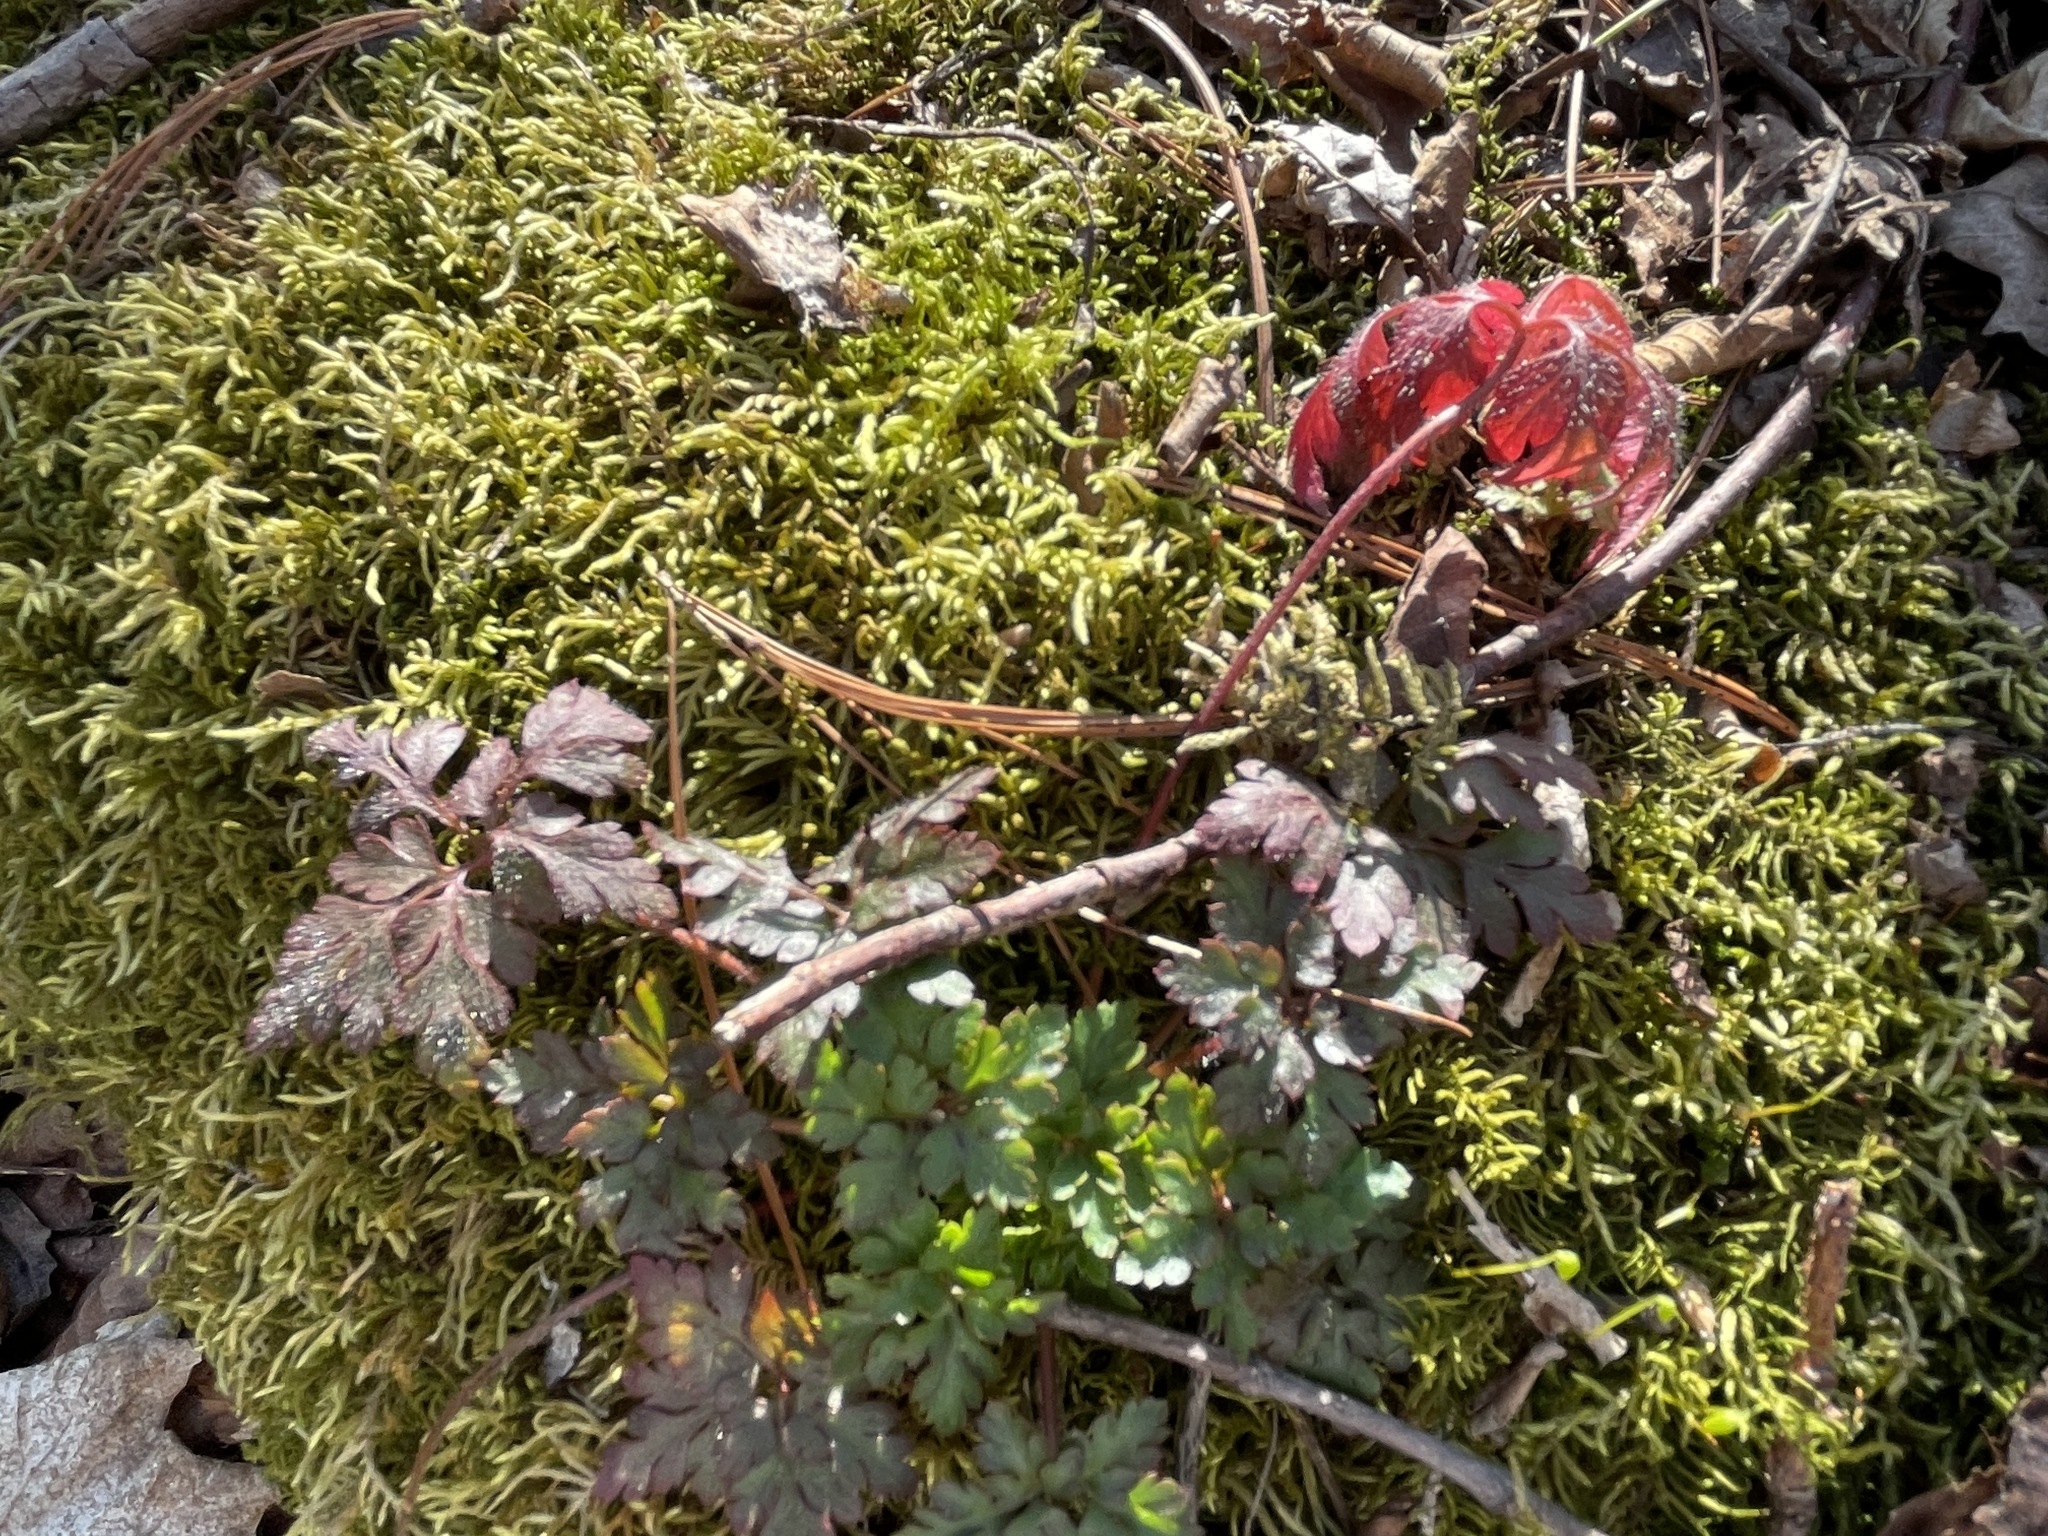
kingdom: Plantae
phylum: Tracheophyta
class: Magnoliopsida
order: Geraniales
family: Geraniaceae
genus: Geranium
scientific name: Geranium robertianum
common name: Herb-robert
